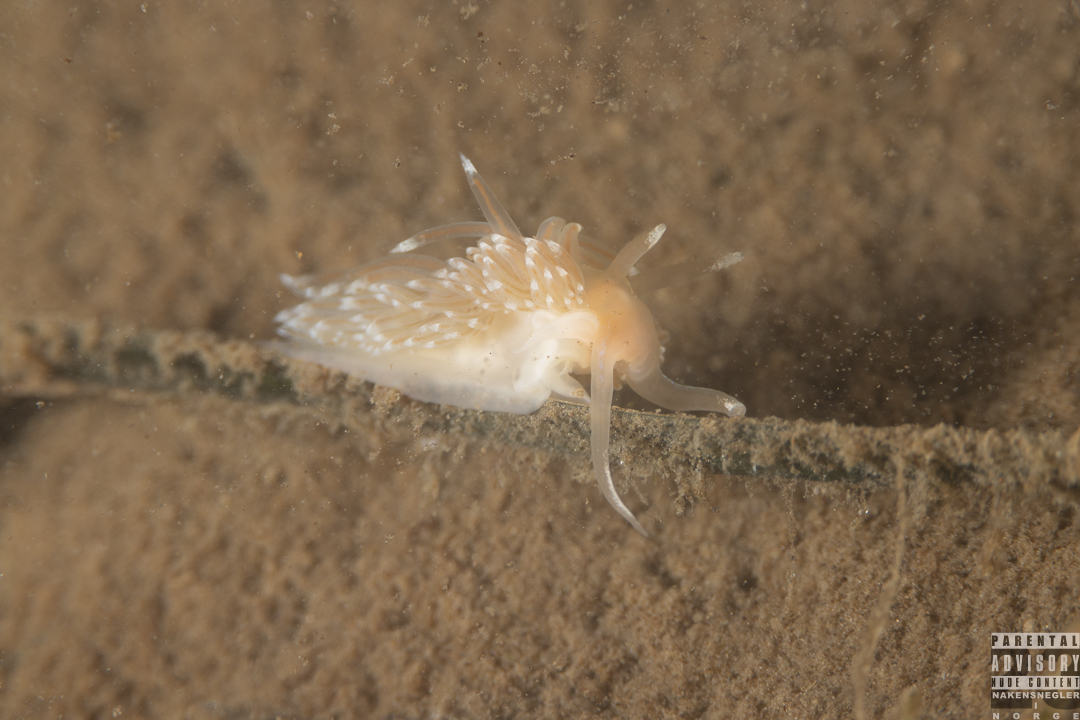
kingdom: Animalia
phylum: Mollusca
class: Gastropoda
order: Nudibranchia
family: Facelinidae
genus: Facelina
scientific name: Facelina bostoniensis
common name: Boston facelina
